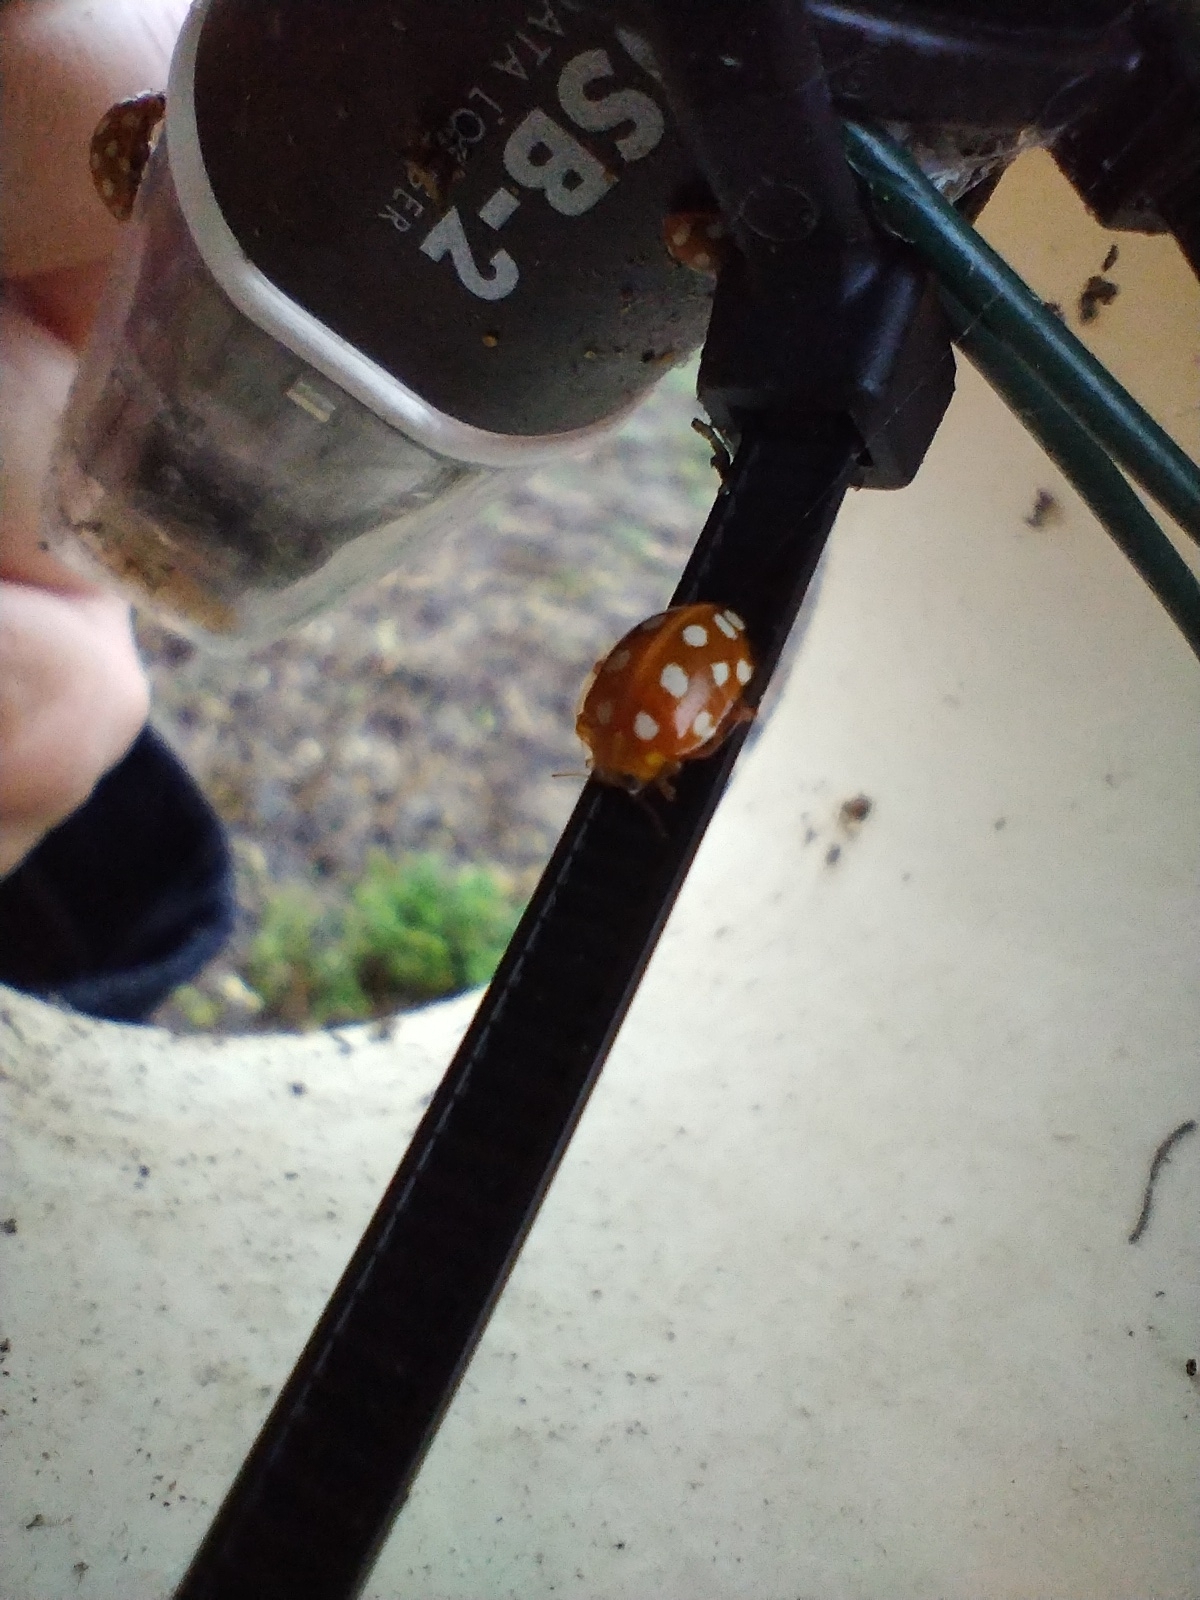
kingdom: Animalia
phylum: Arthropoda
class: Insecta
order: Coleoptera
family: Coccinellidae
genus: Halyzia
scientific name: Halyzia sedecimguttata
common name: Orange ladybird
